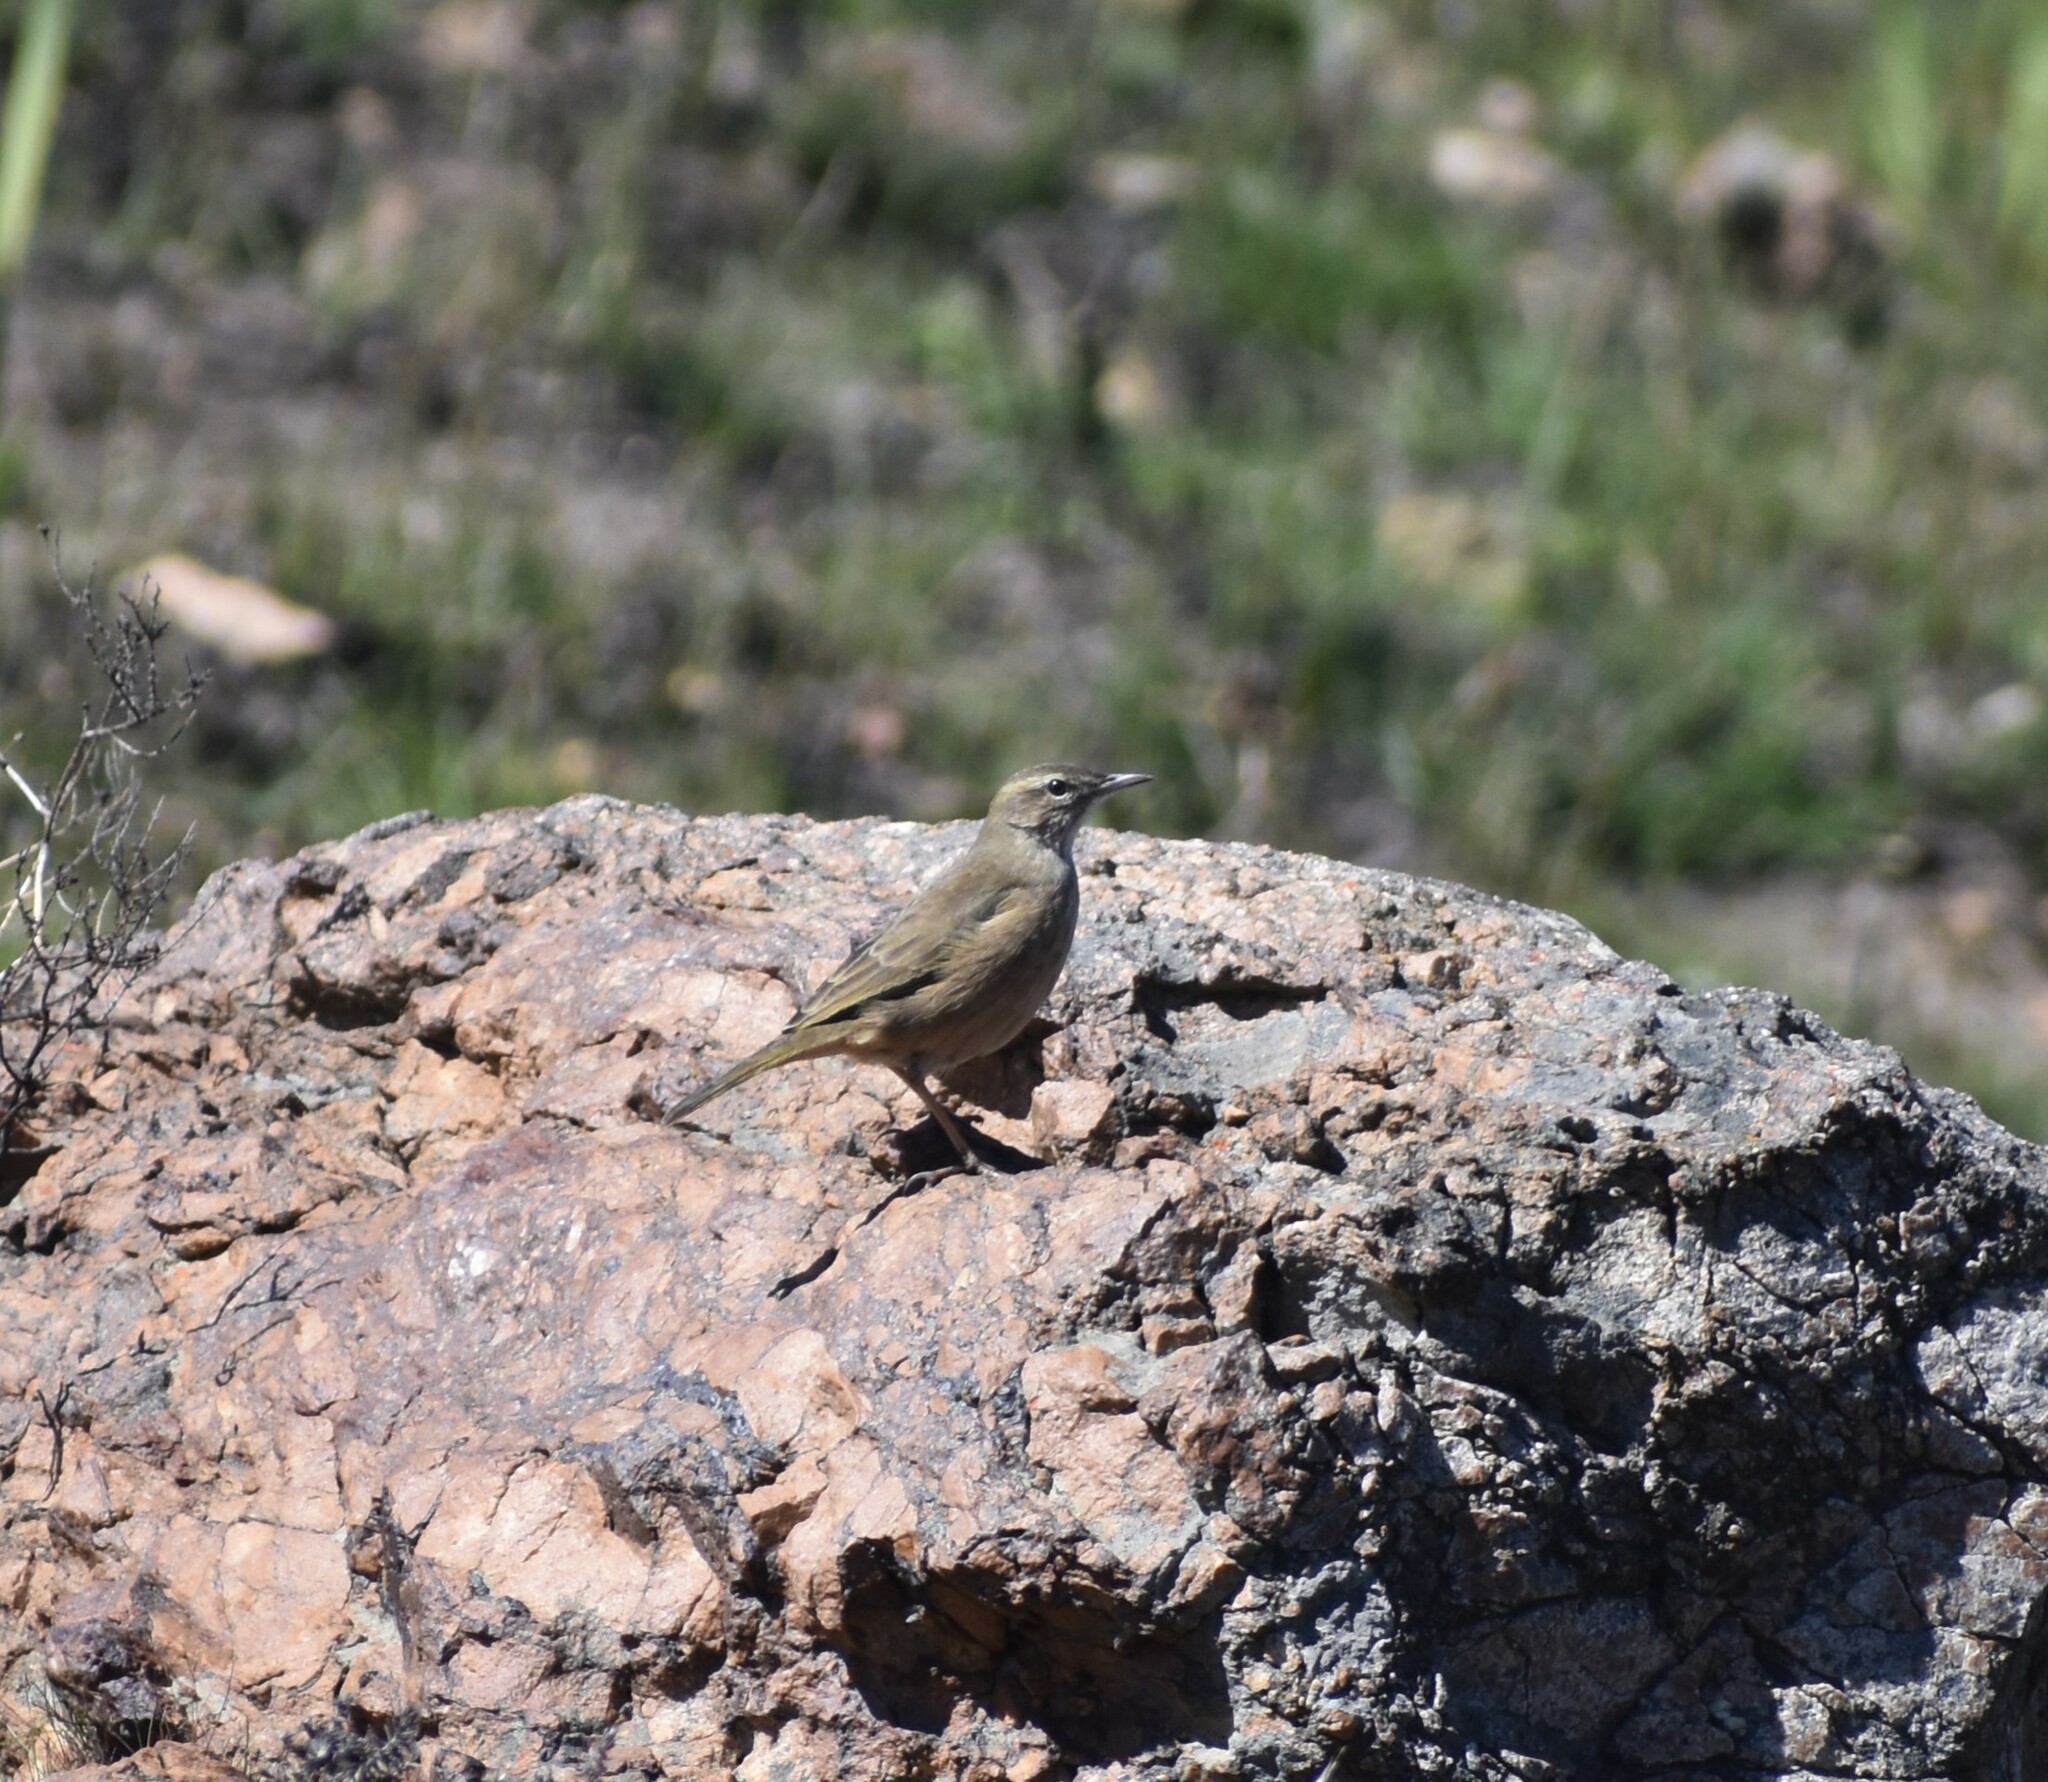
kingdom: Animalia
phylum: Chordata
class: Aves
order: Passeriformes
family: Motacillidae
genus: Anthus
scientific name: Anthus crenatus
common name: African rock pipit
